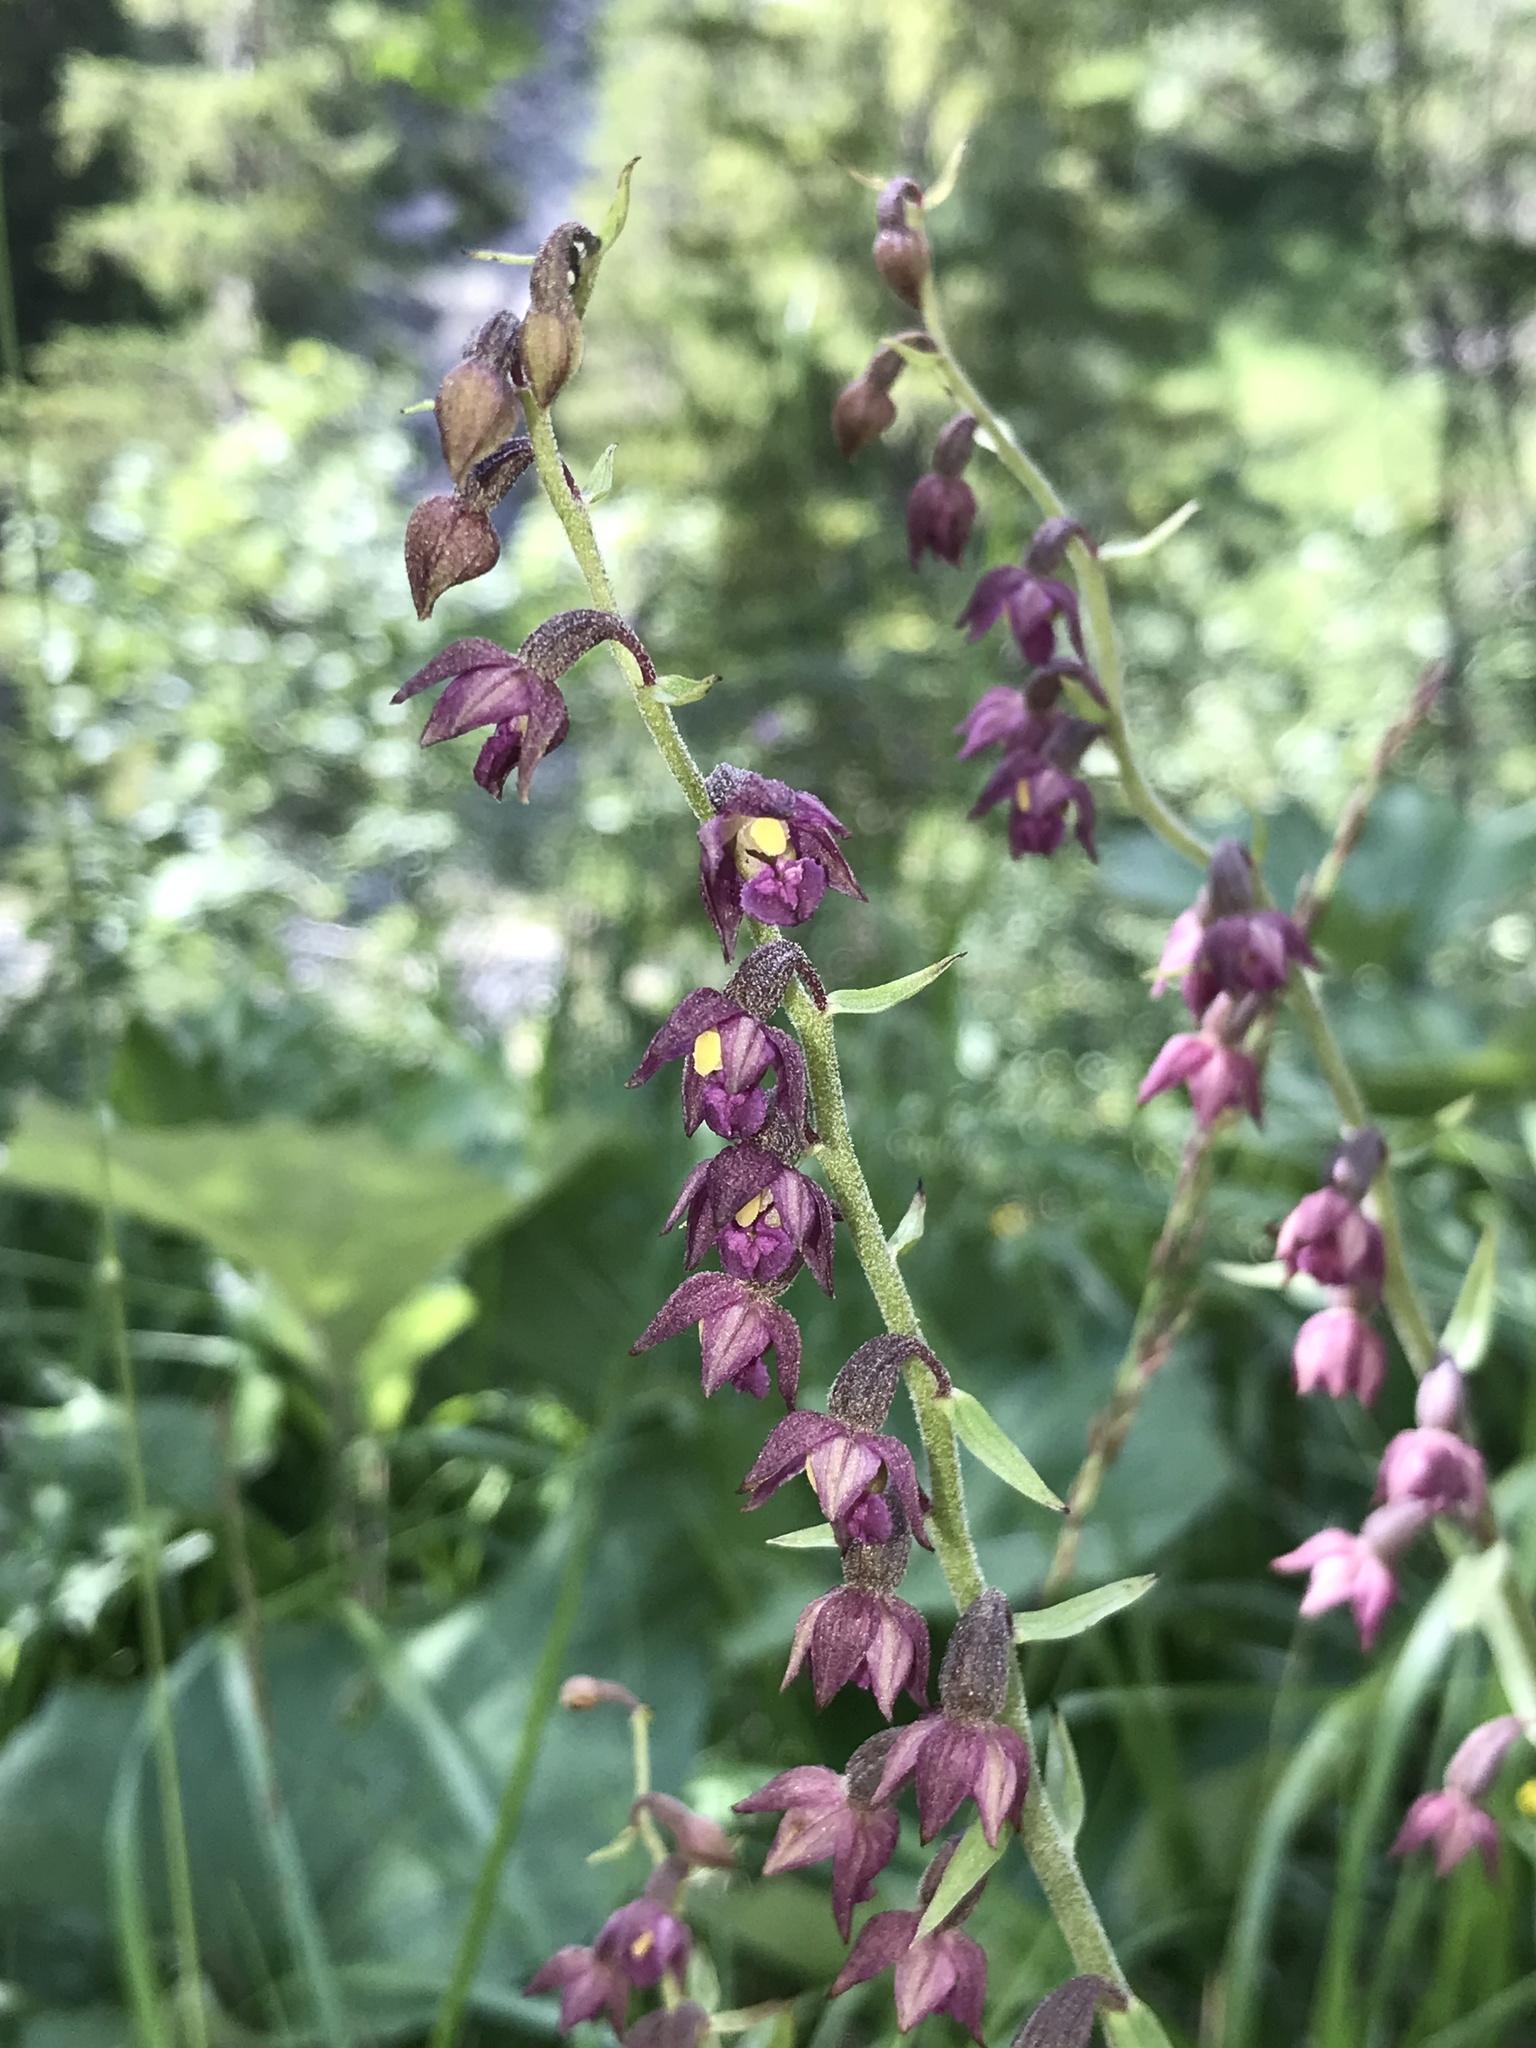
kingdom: Plantae
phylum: Tracheophyta
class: Liliopsida
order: Asparagales
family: Orchidaceae
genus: Epipactis
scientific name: Epipactis atrorubens
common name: Dark-red helleborine
